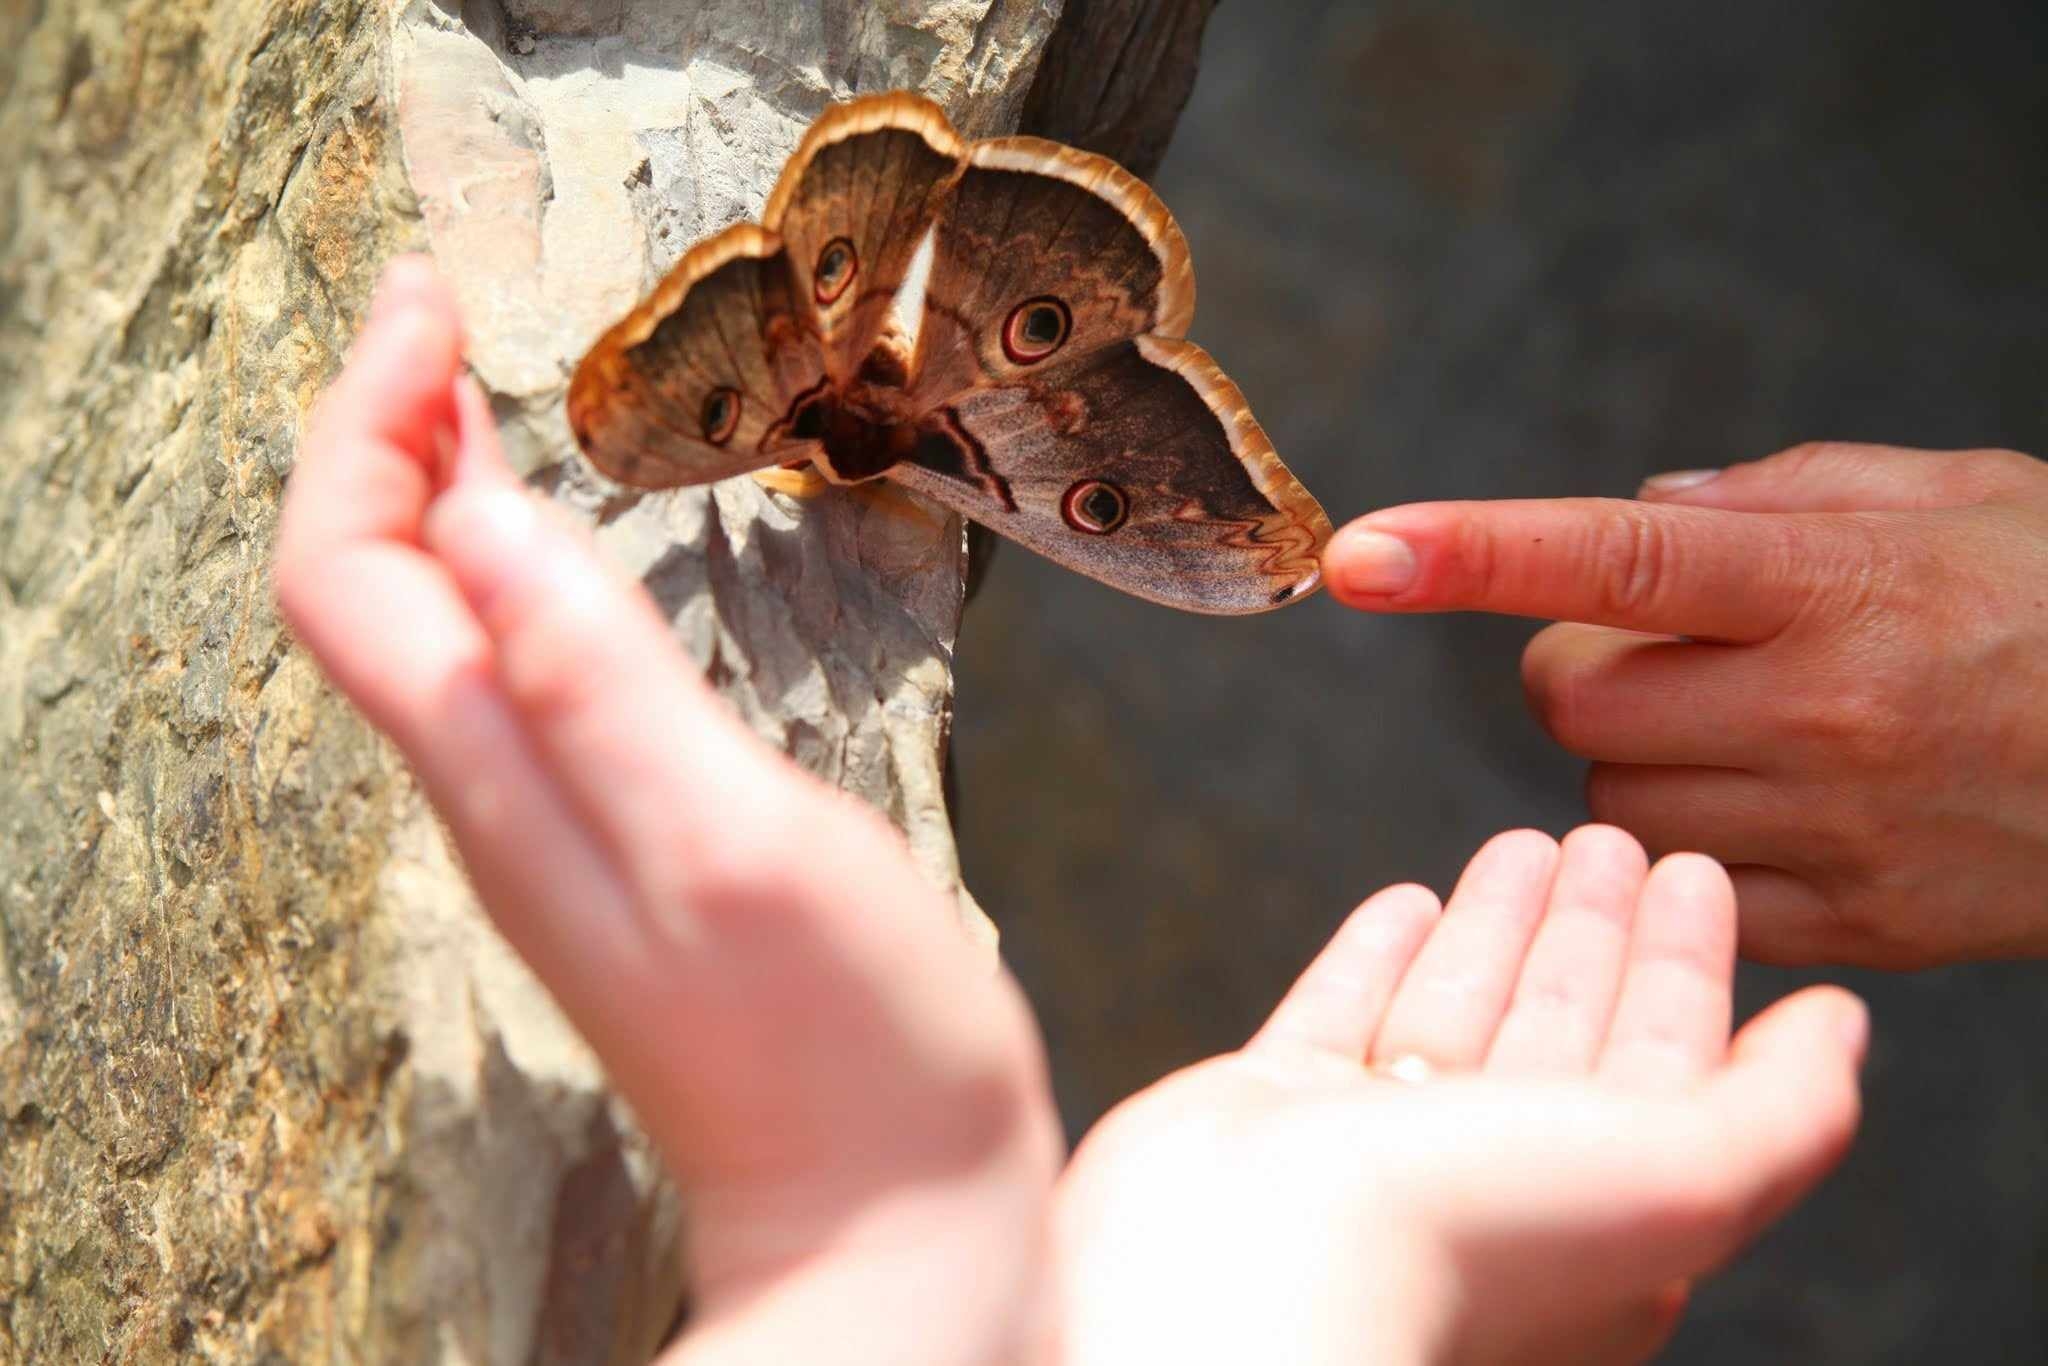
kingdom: Animalia
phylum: Arthropoda
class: Insecta
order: Lepidoptera
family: Saturniidae
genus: Saturnia
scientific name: Saturnia pyri
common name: Great peacock moth
